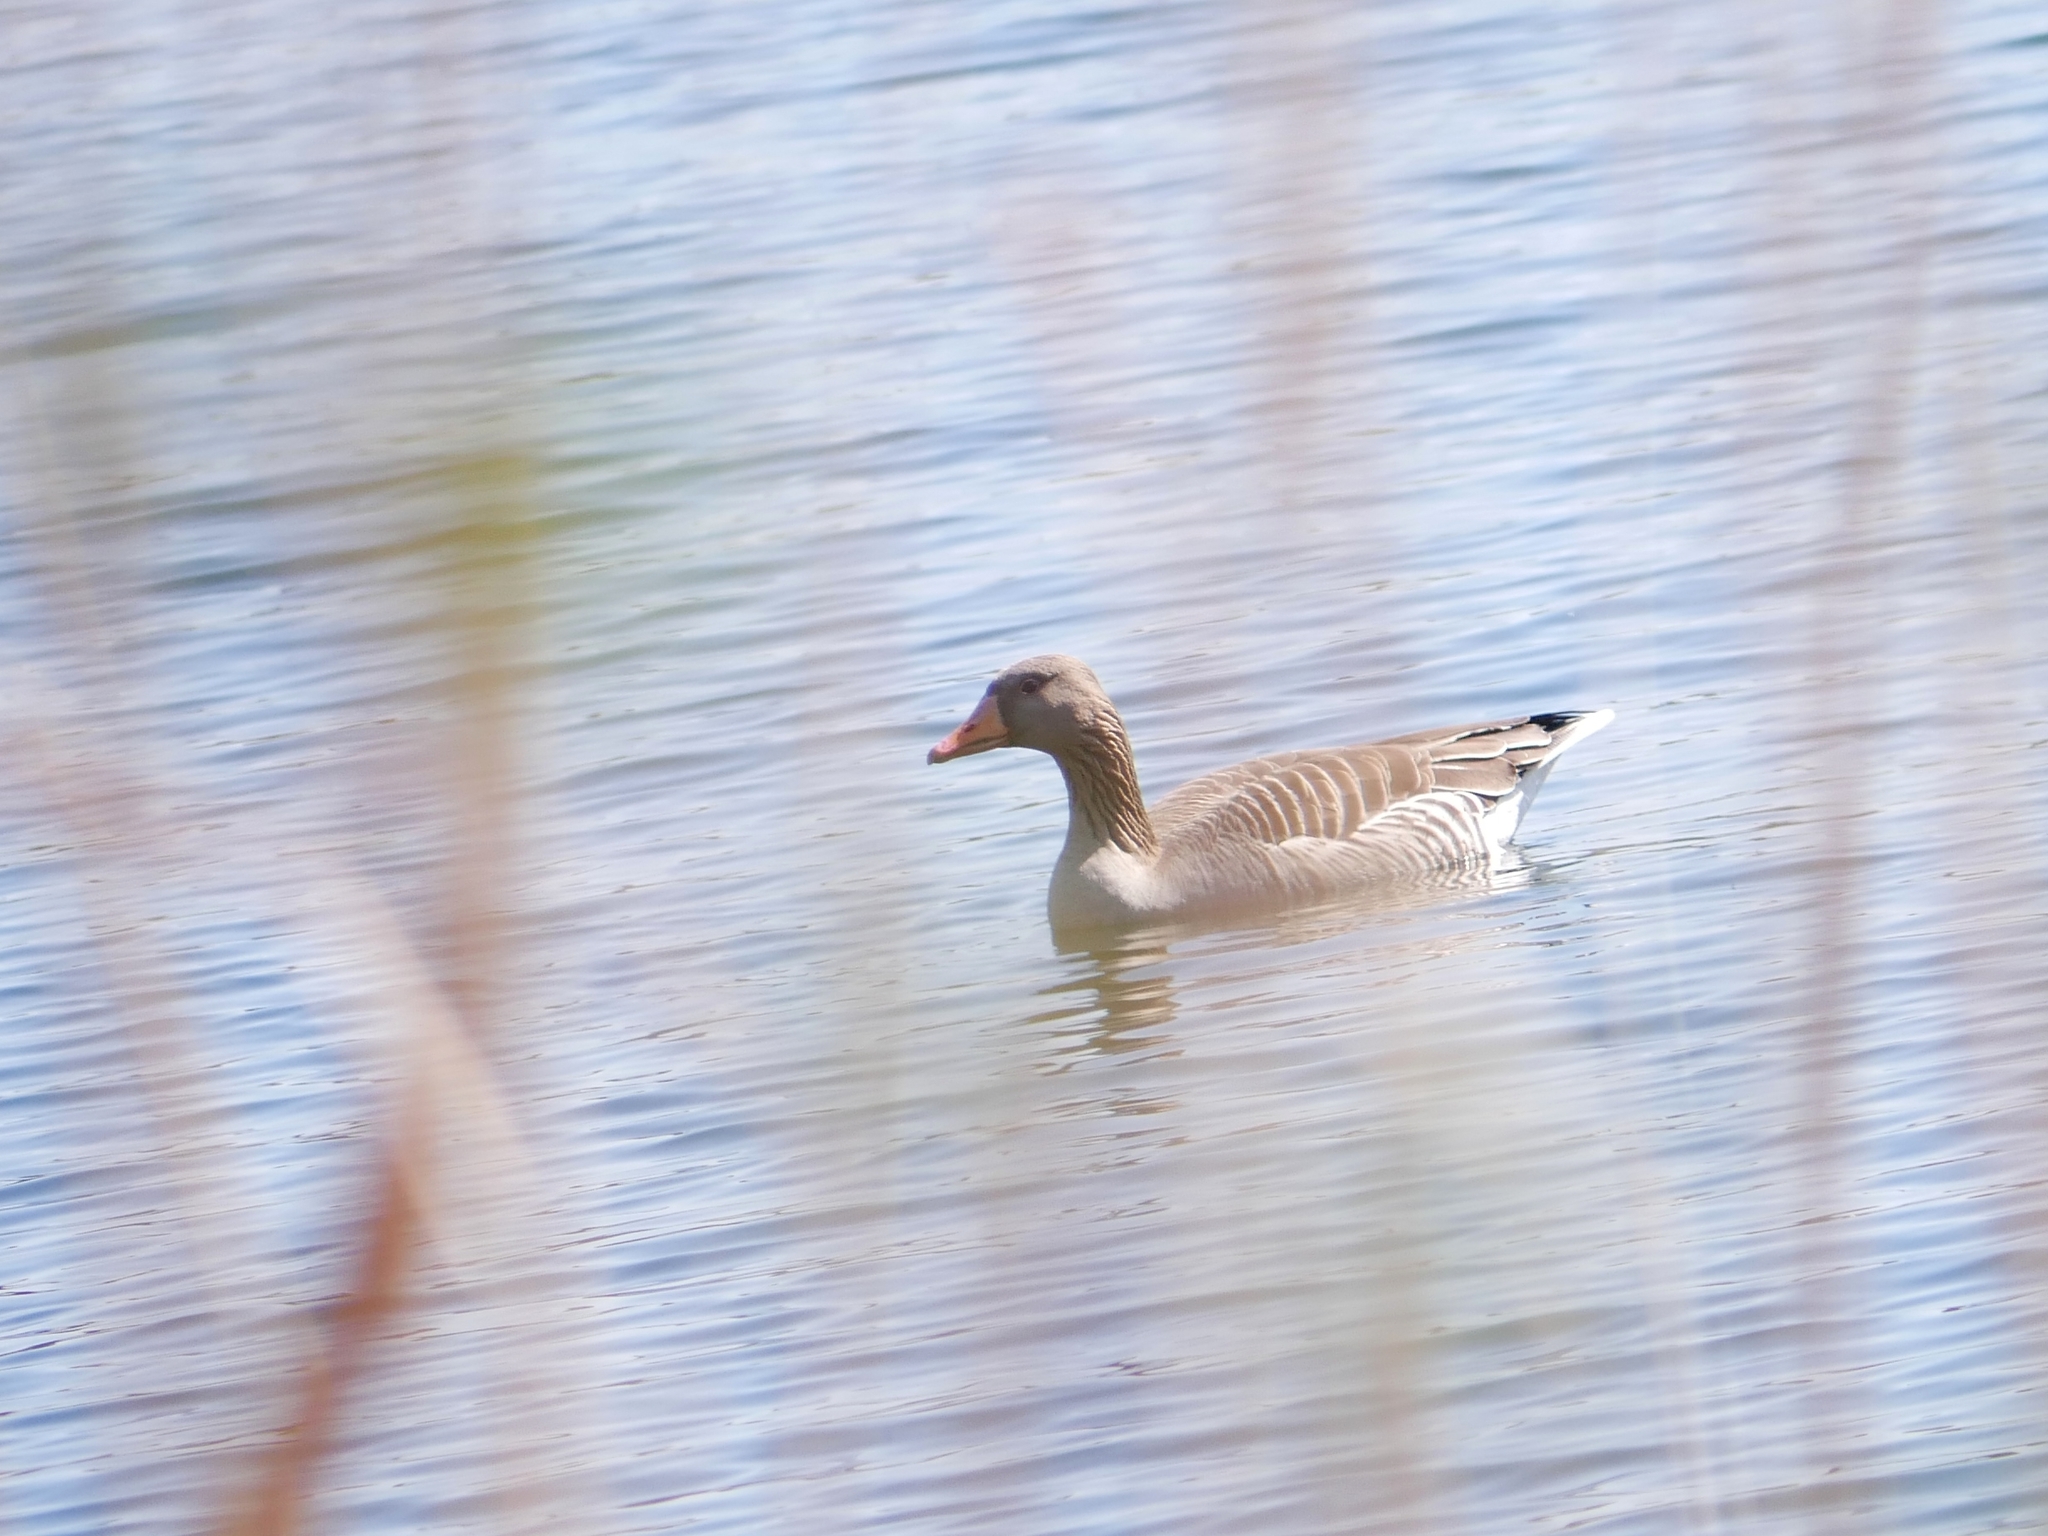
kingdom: Animalia
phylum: Chordata
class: Aves
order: Anseriformes
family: Anatidae
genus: Anser
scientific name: Anser anser
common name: Greylag goose
